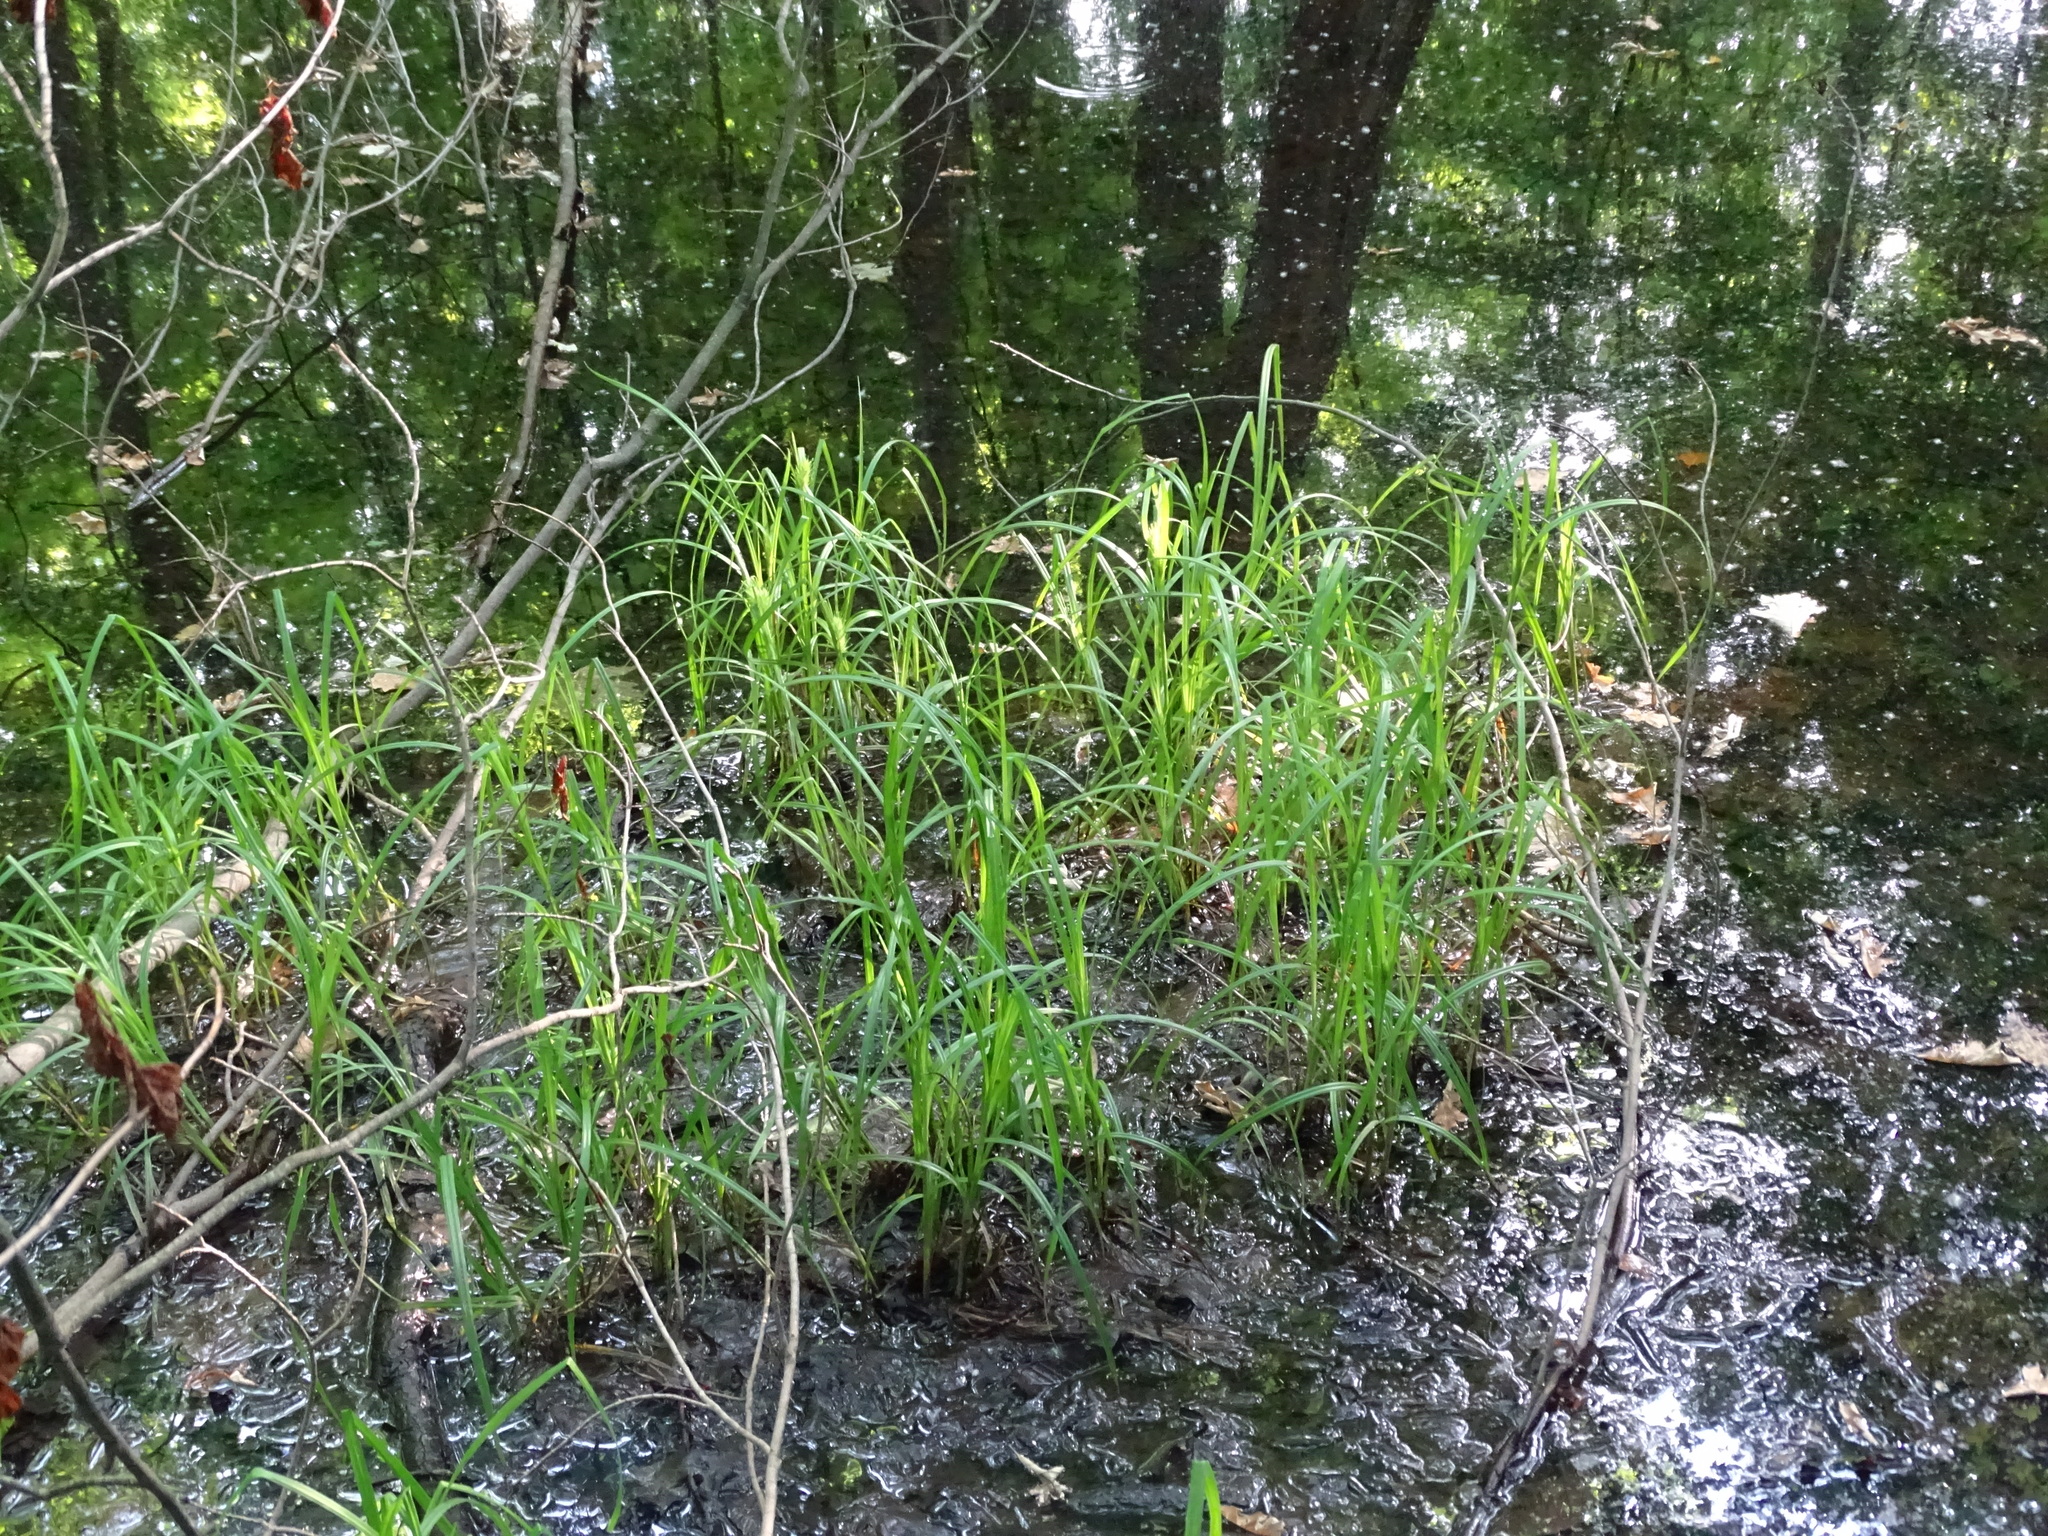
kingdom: Plantae
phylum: Tracheophyta
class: Liliopsida
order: Poales
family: Cyperaceae
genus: Carex
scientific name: Carex lupulina
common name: Hop sedge
